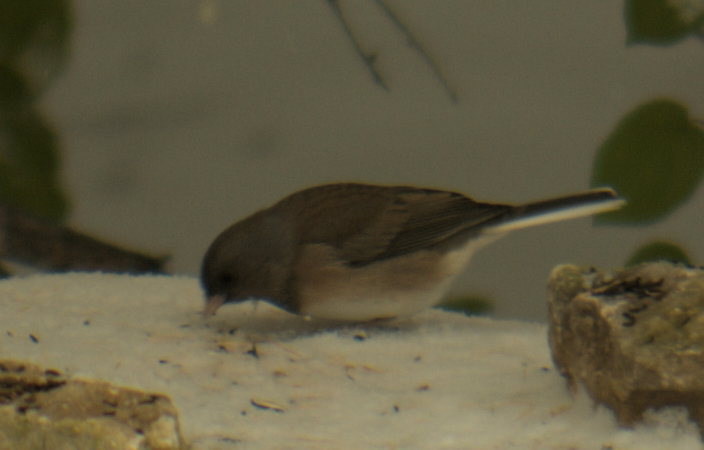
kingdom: Animalia
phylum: Chordata
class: Aves
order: Passeriformes
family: Passerellidae
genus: Junco
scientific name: Junco hyemalis
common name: Dark-eyed junco
